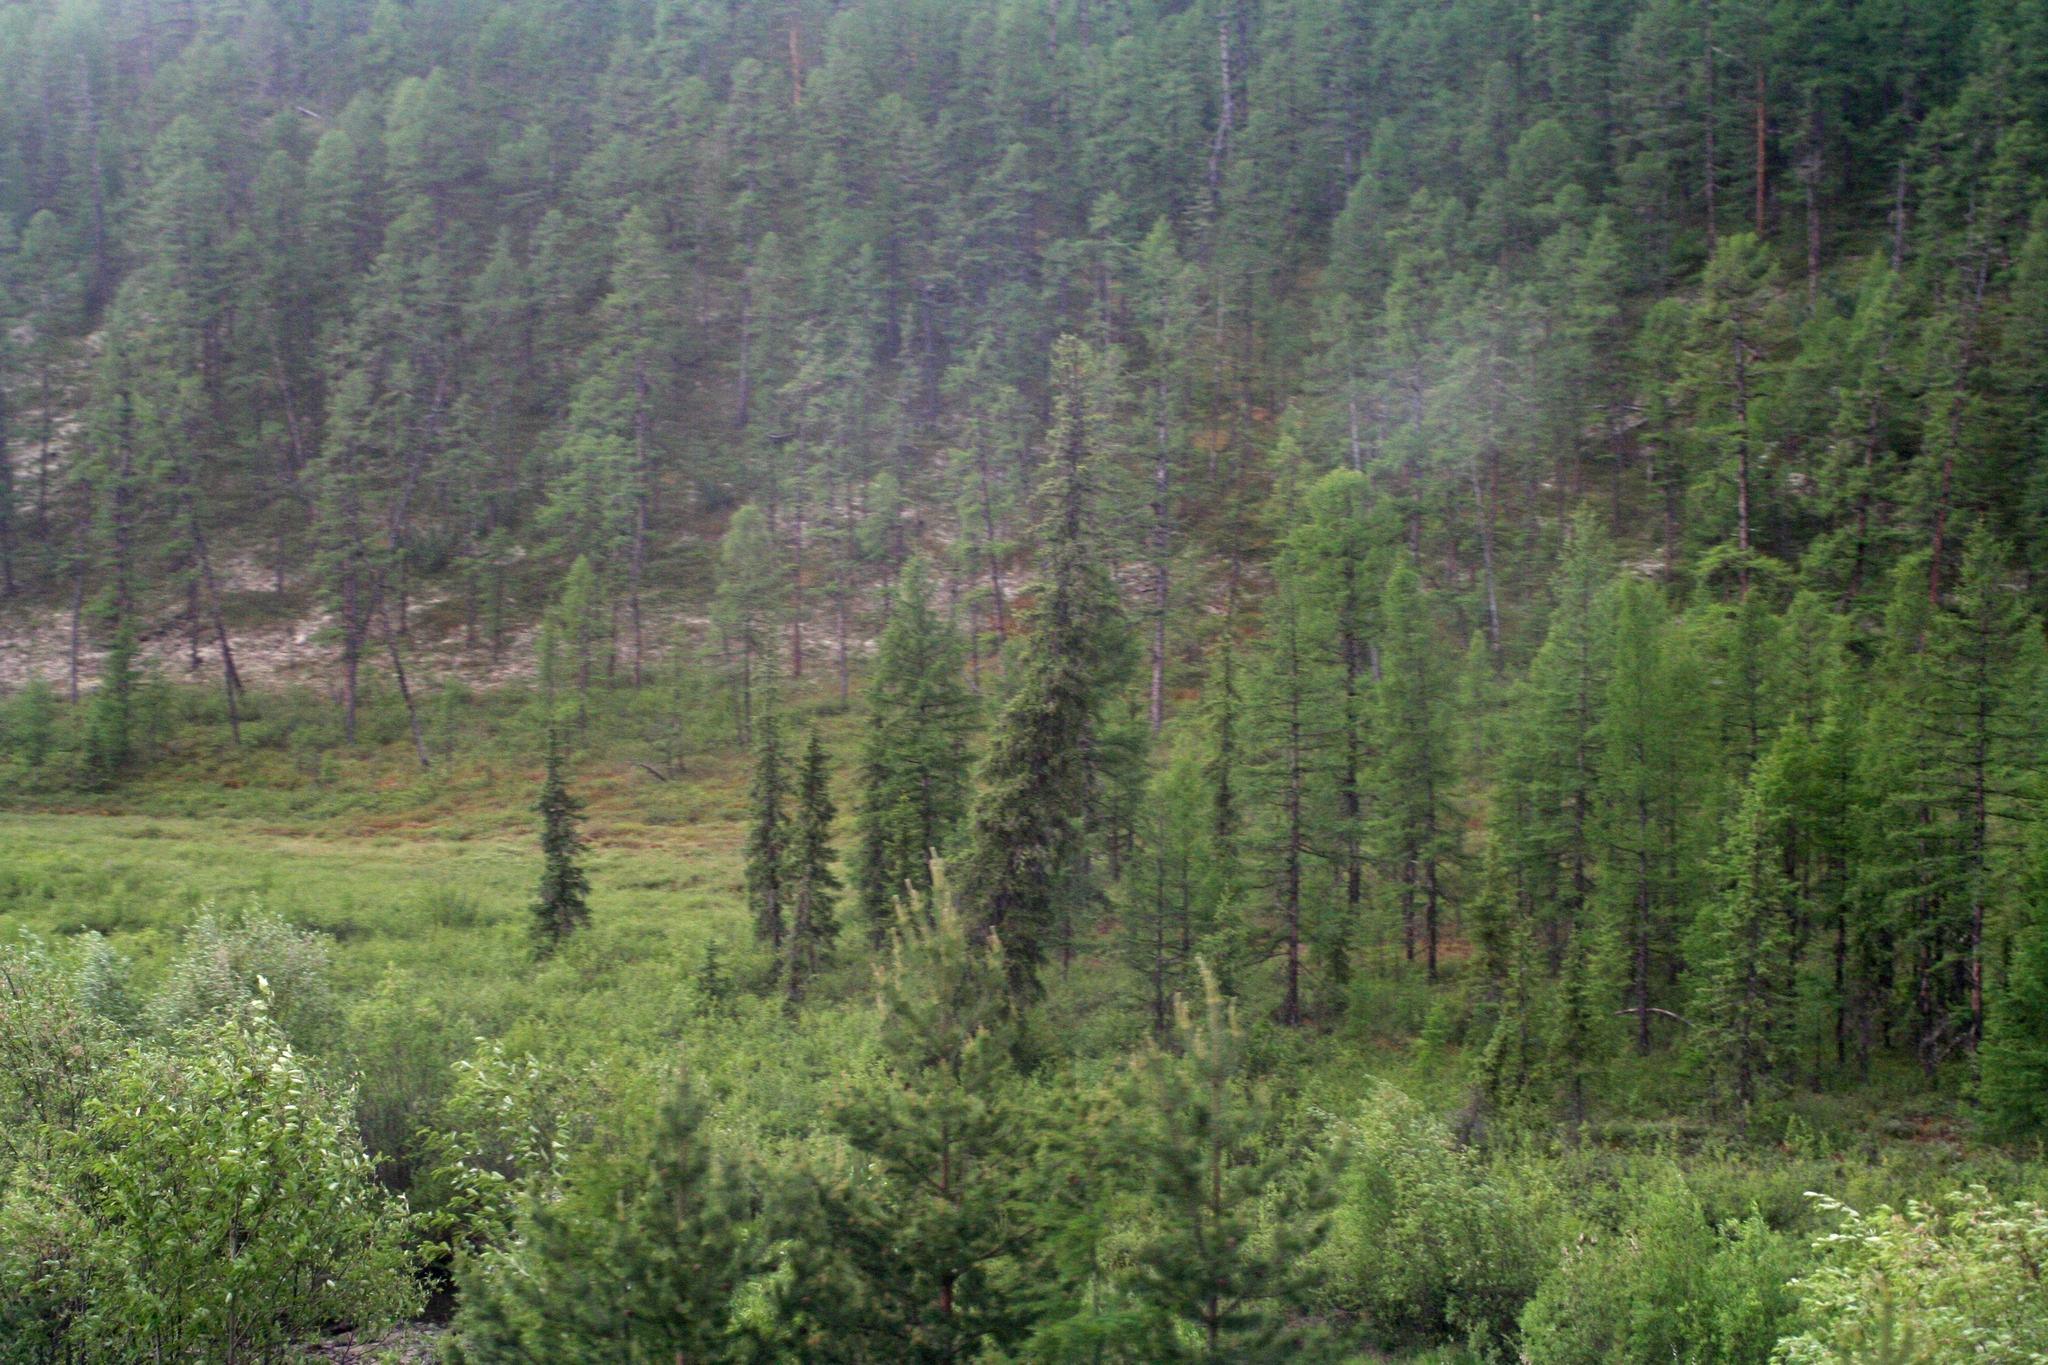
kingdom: Plantae
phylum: Tracheophyta
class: Pinopsida
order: Pinales
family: Pinaceae
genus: Picea
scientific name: Picea obovata
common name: Siberian spruce
